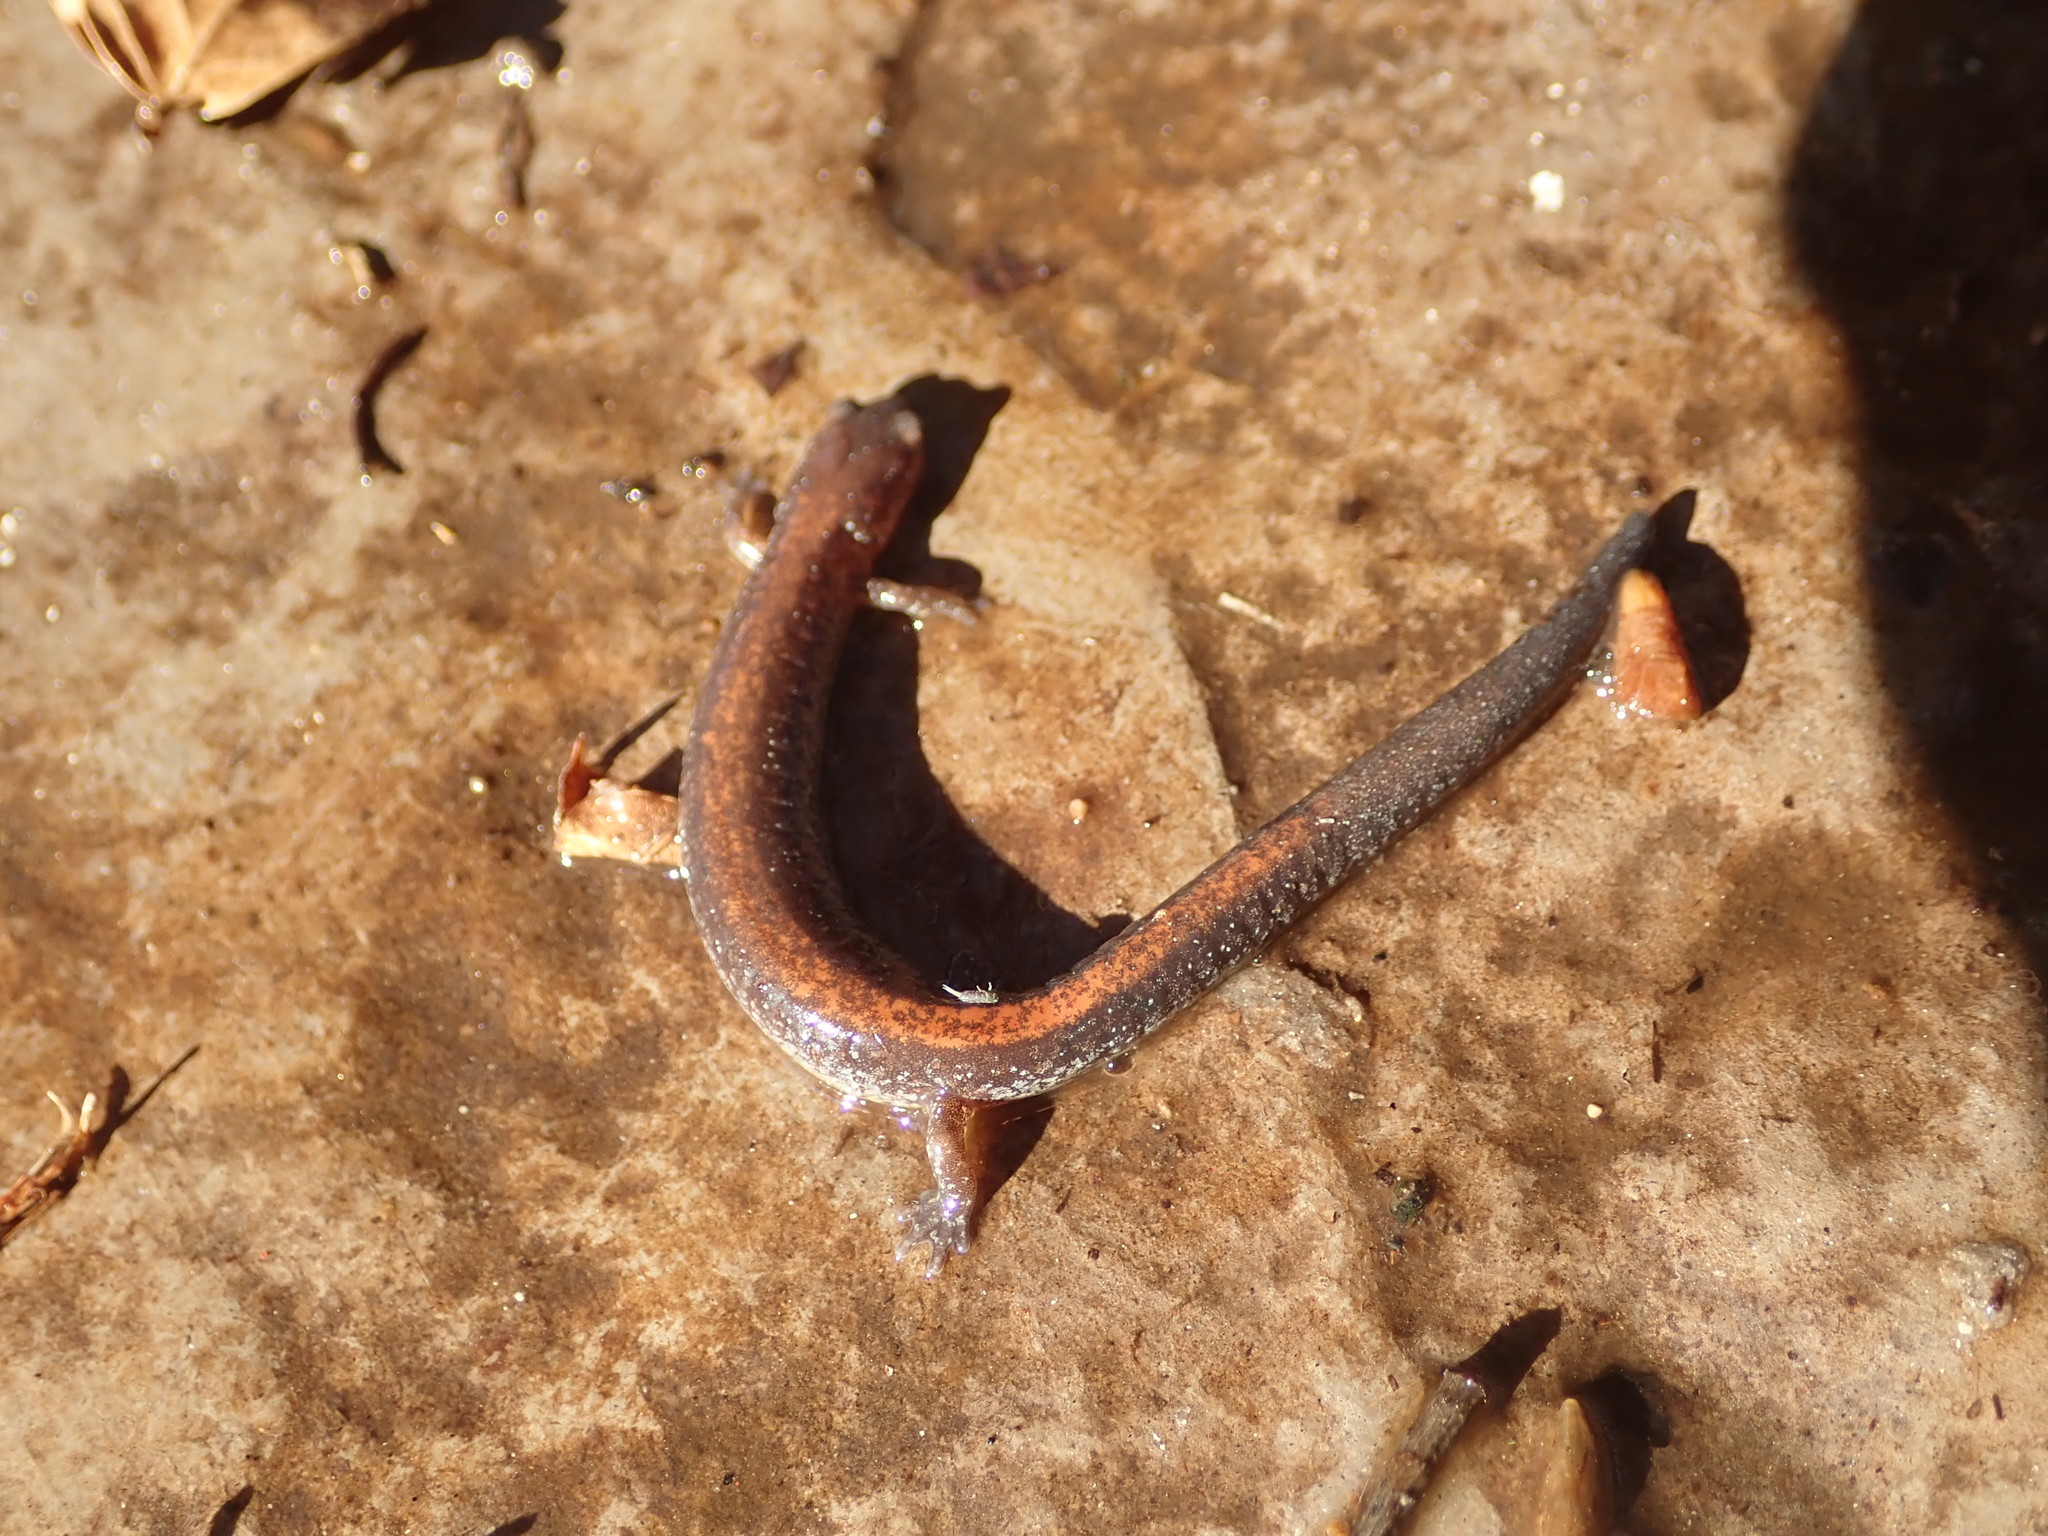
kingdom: Animalia
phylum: Chordata
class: Amphibia
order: Caudata
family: Plethodontidae
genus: Plethodon
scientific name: Plethodon cinereus
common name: Redback salamander
